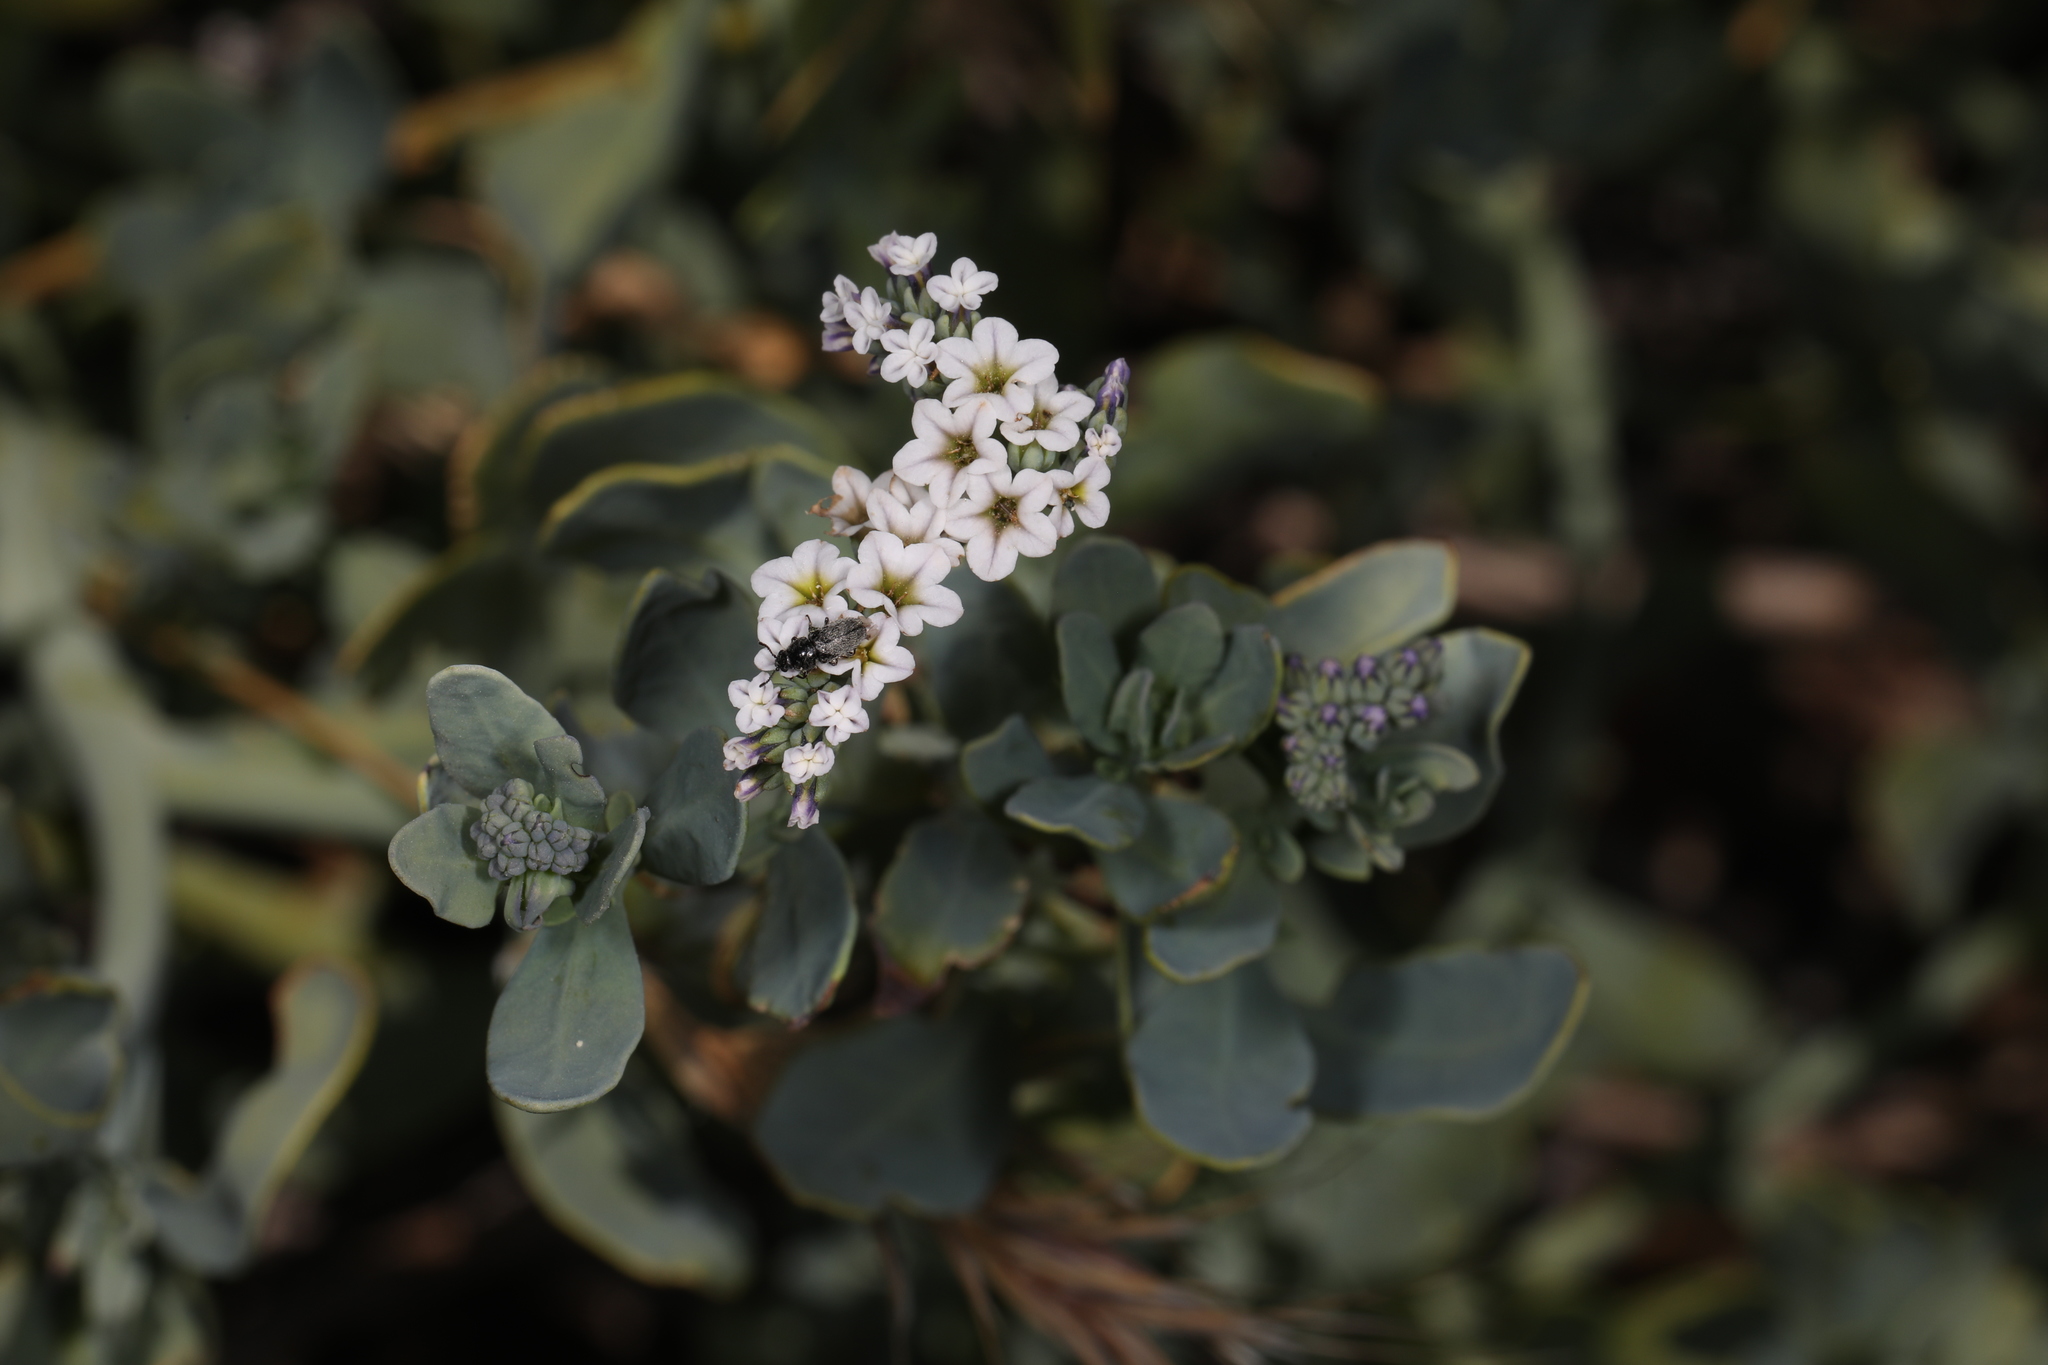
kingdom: Plantae
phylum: Tracheophyta
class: Magnoliopsida
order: Boraginales
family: Heliotropiaceae
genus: Heliotropium
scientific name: Heliotropium curassavicum
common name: Seaside heliotrope
